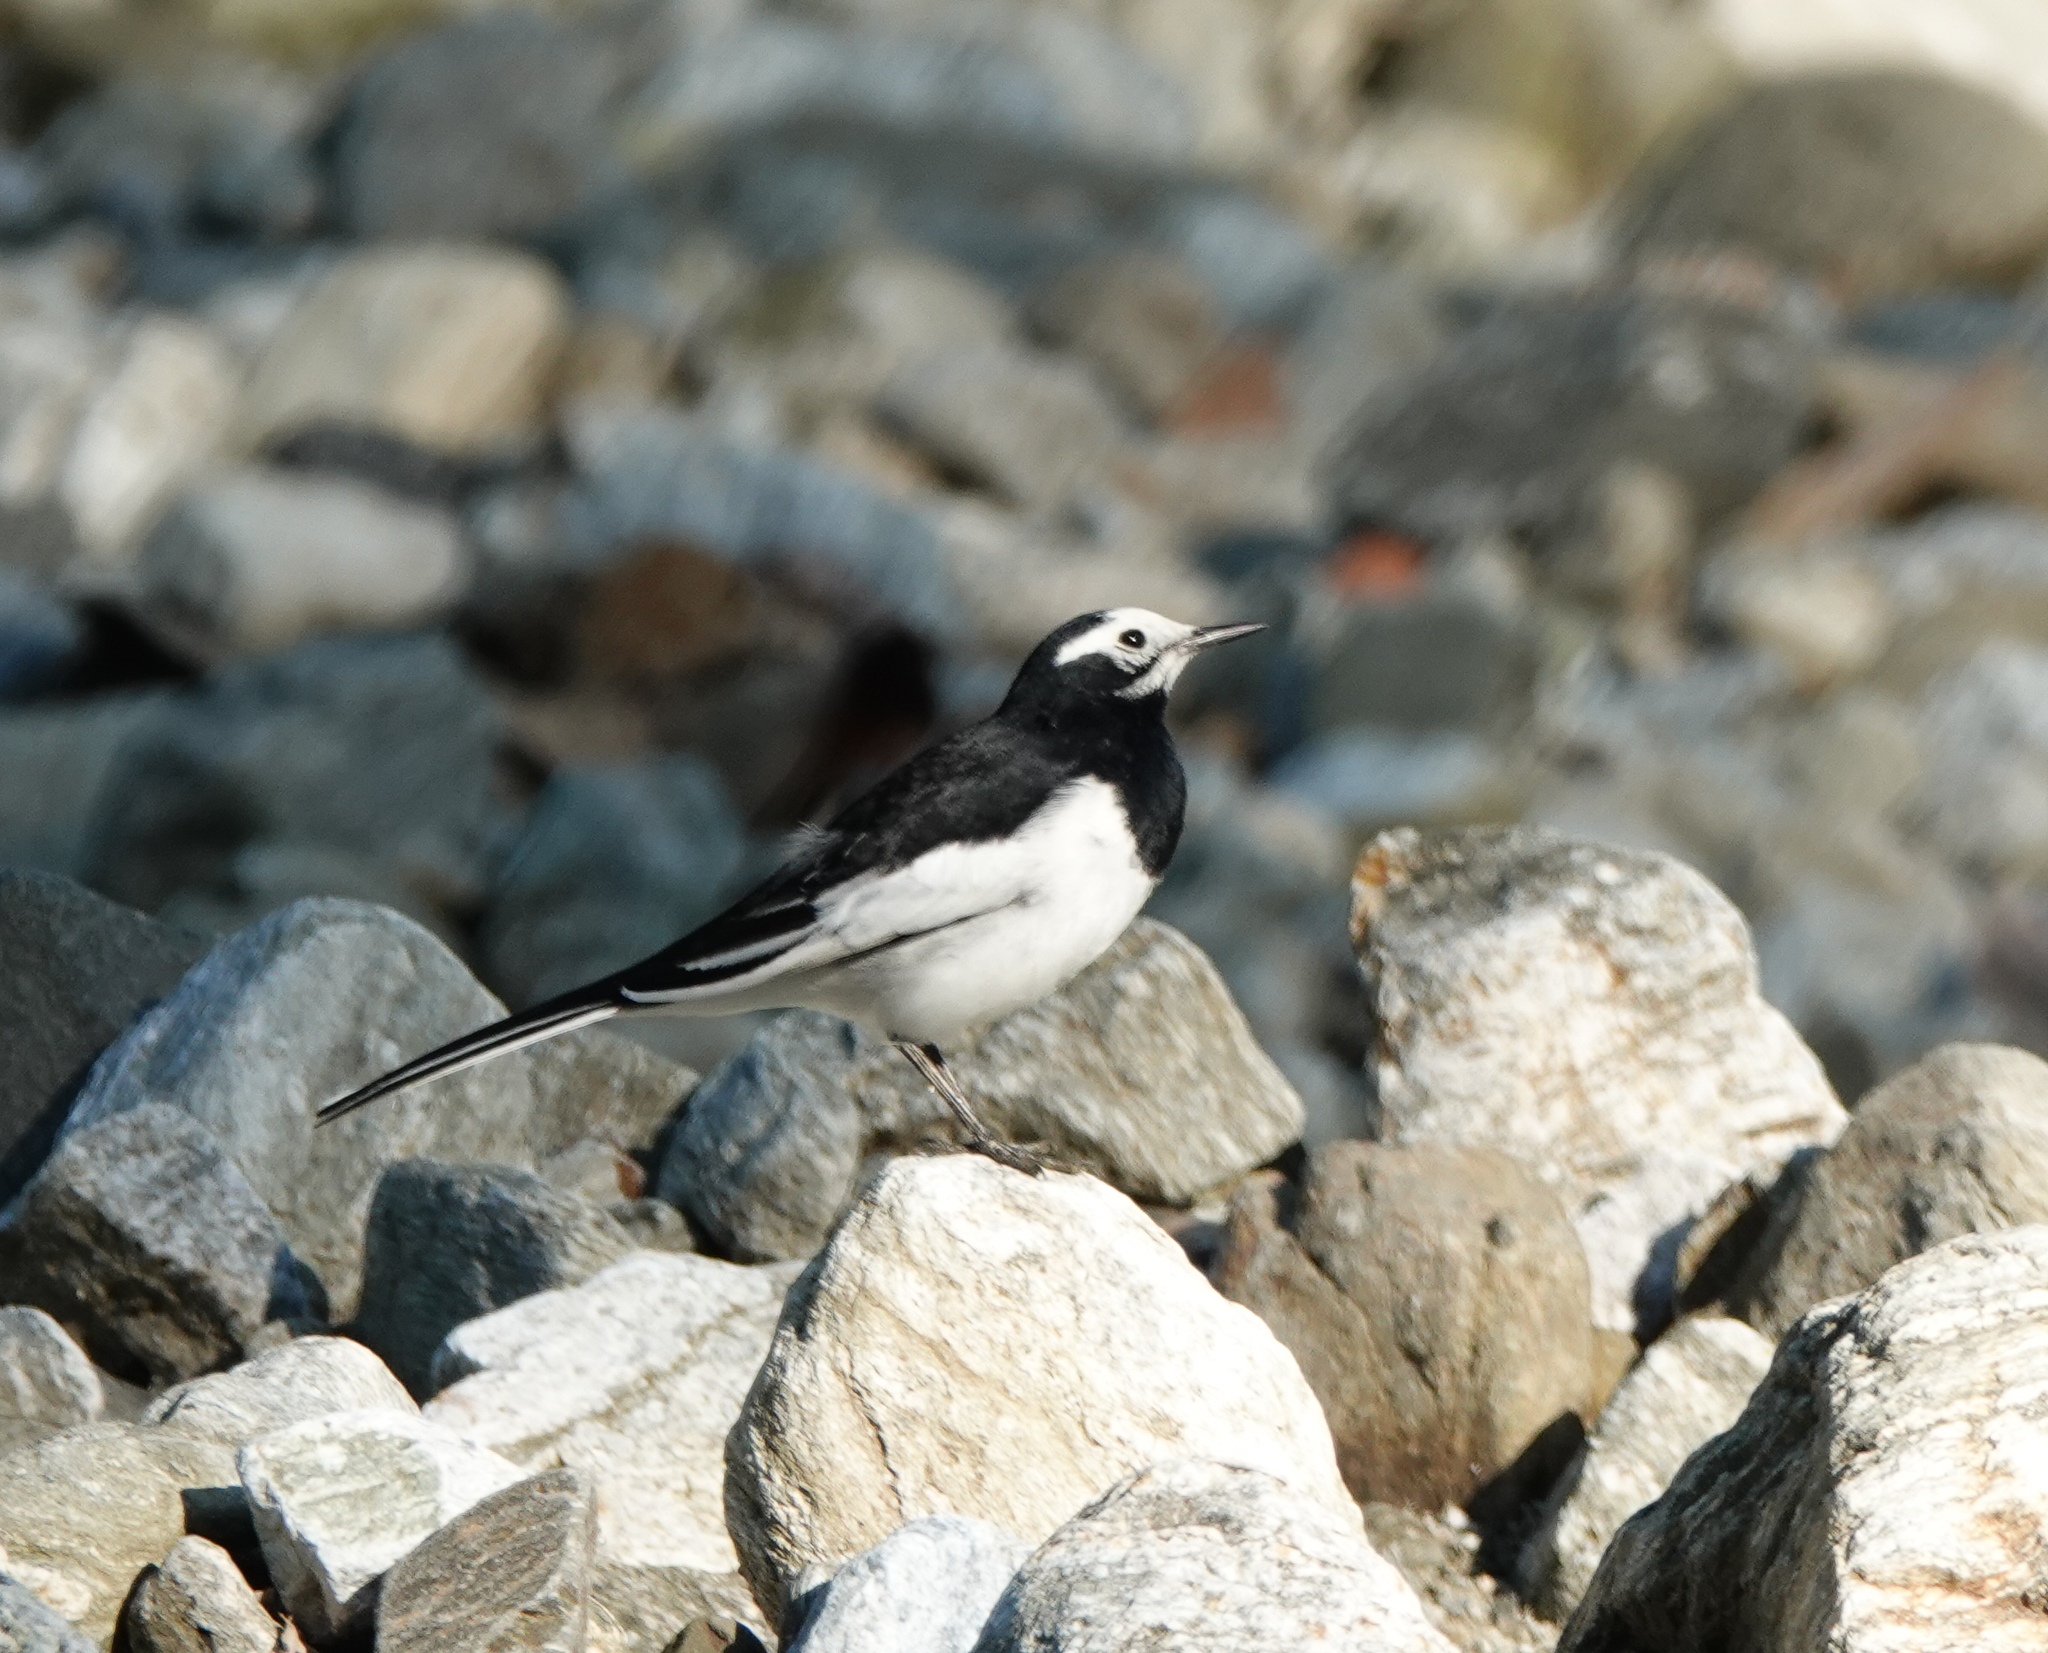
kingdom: Animalia
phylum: Chordata
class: Aves
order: Passeriformes
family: Motacillidae
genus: Motacilla
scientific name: Motacilla alba
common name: White wagtail
